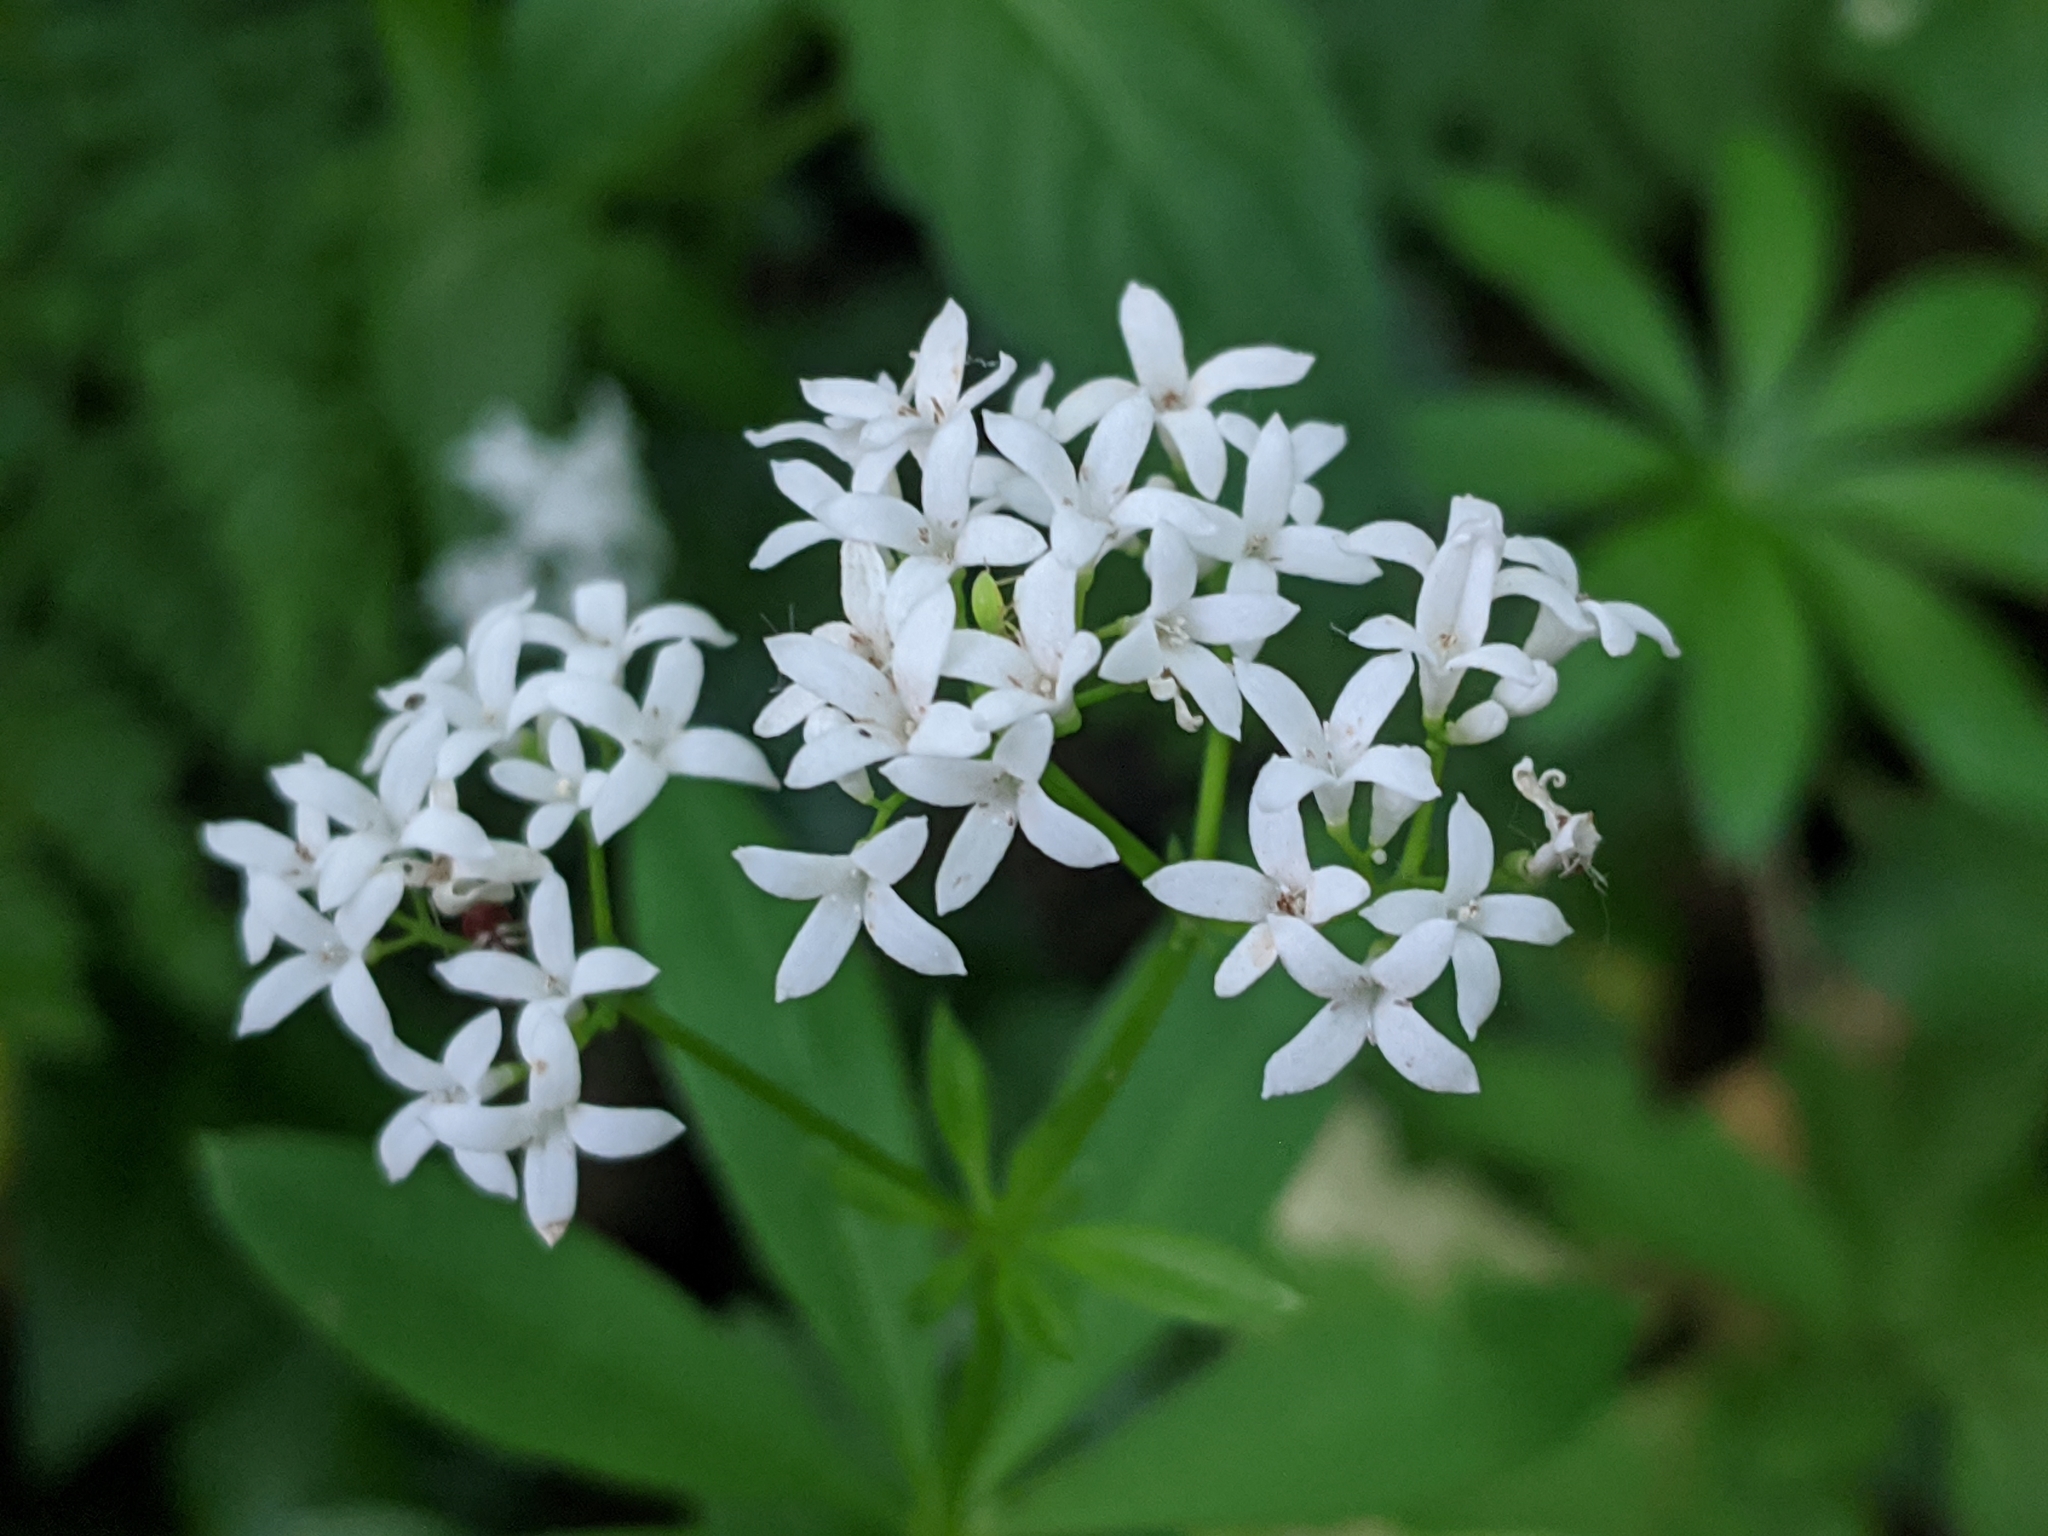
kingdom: Plantae
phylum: Tracheophyta
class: Magnoliopsida
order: Gentianales
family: Rubiaceae
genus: Galium
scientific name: Galium odoratum
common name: Sweet woodruff
